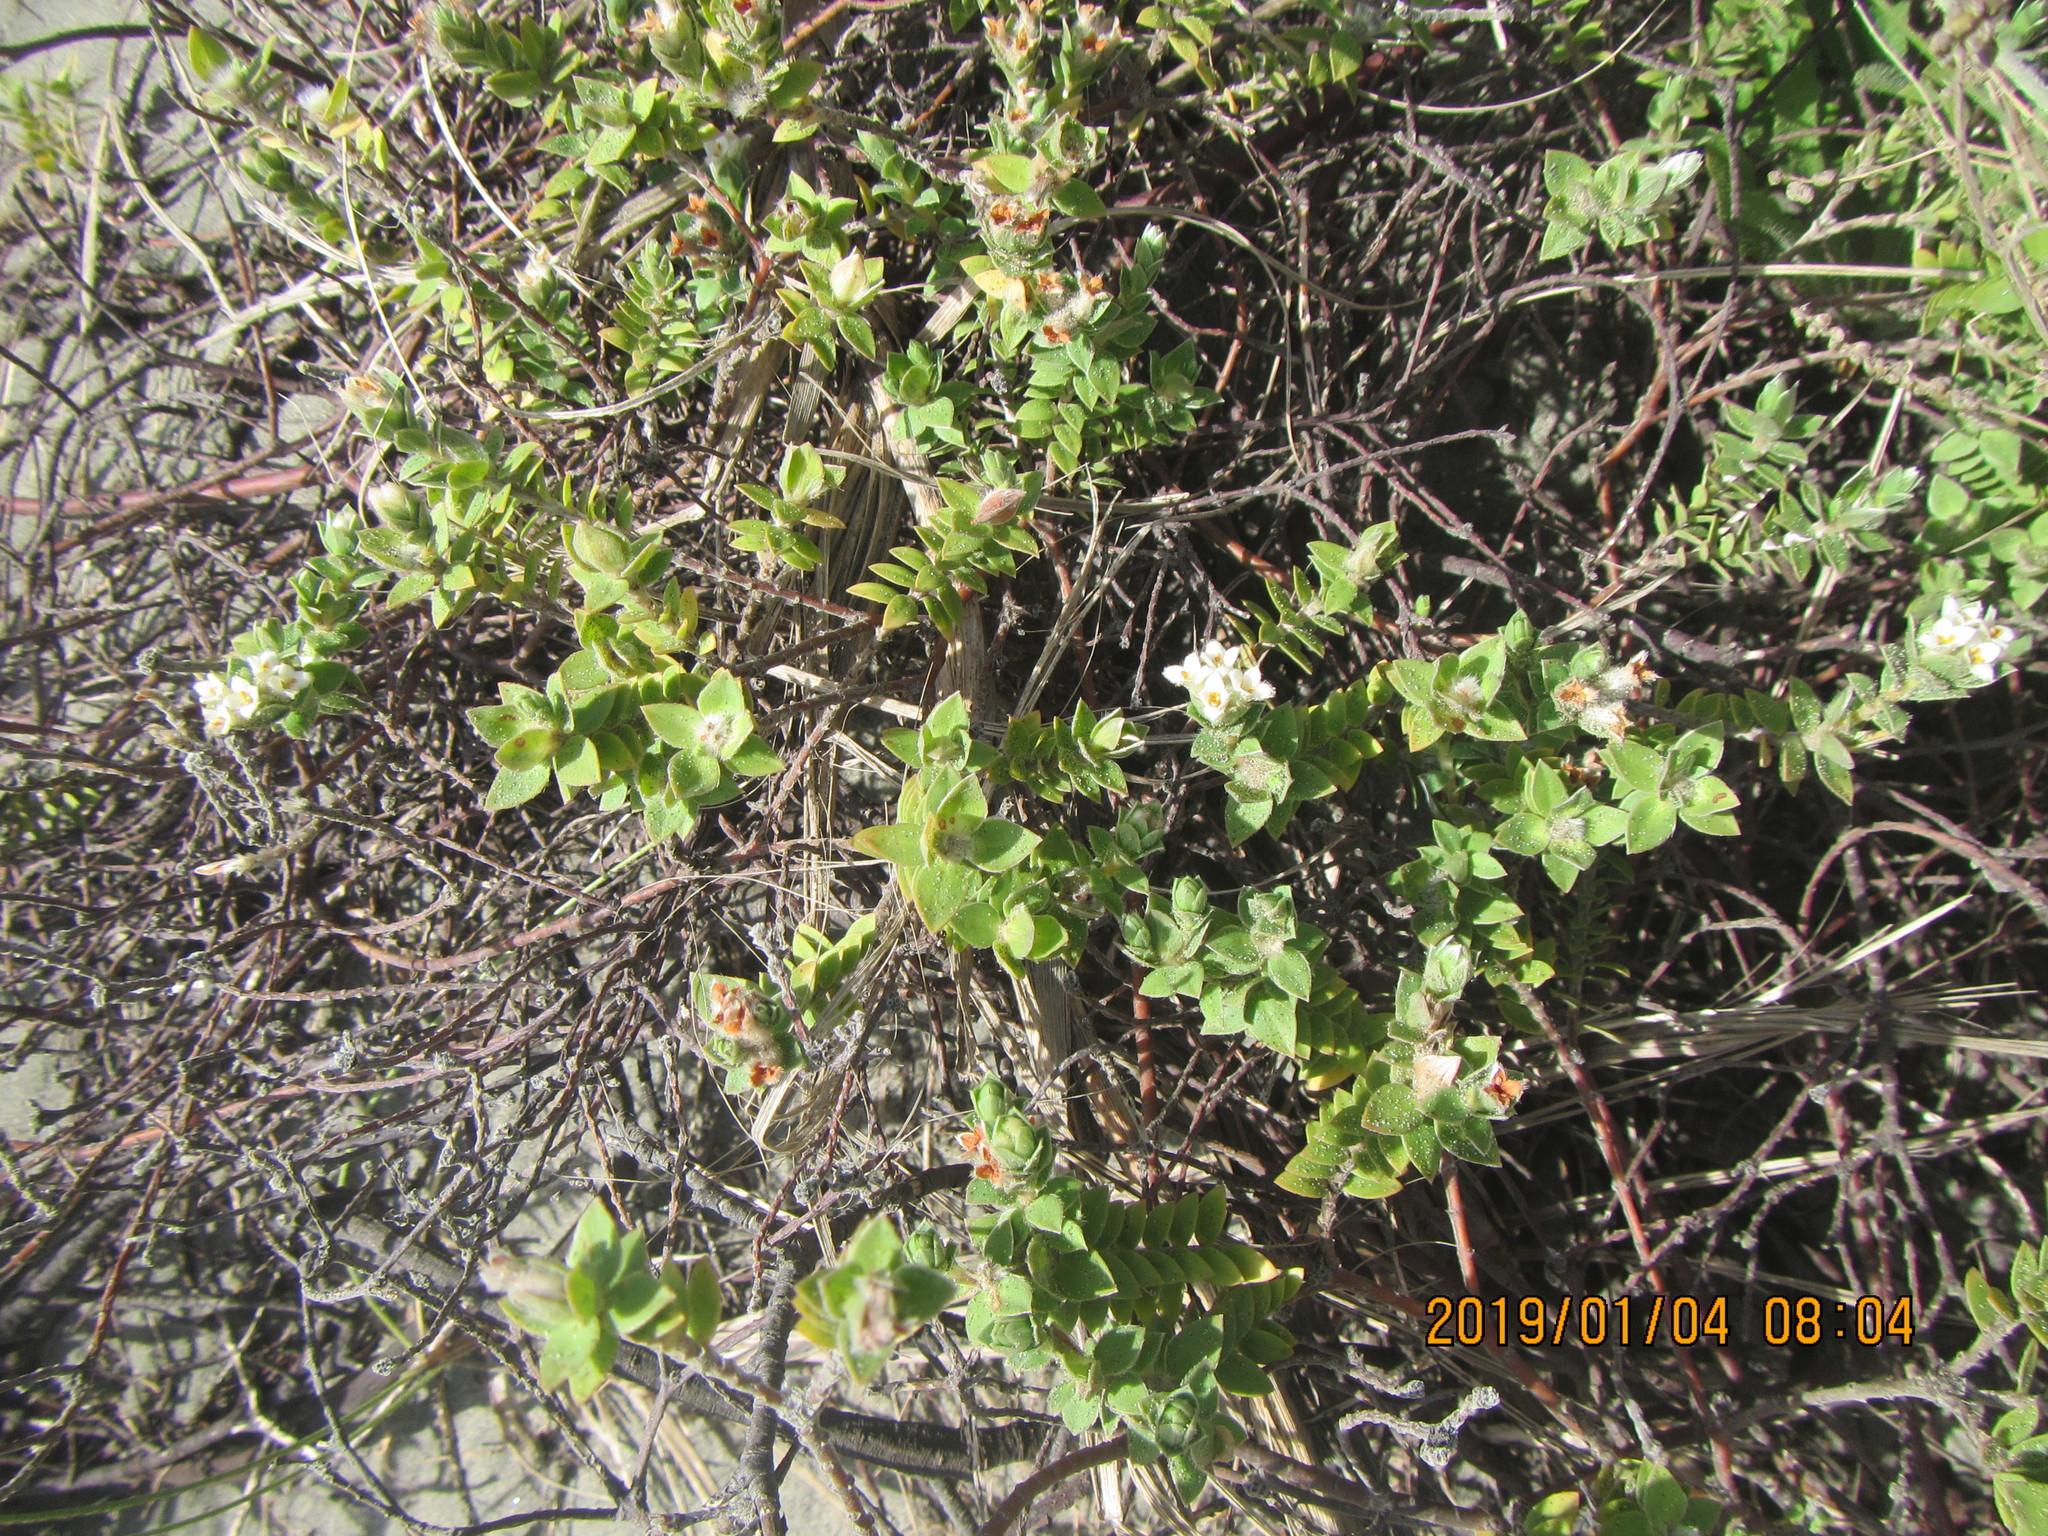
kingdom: Plantae
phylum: Tracheophyta
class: Magnoliopsida
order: Malvales
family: Thymelaeaceae
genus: Pimelea
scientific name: Pimelea villosa
